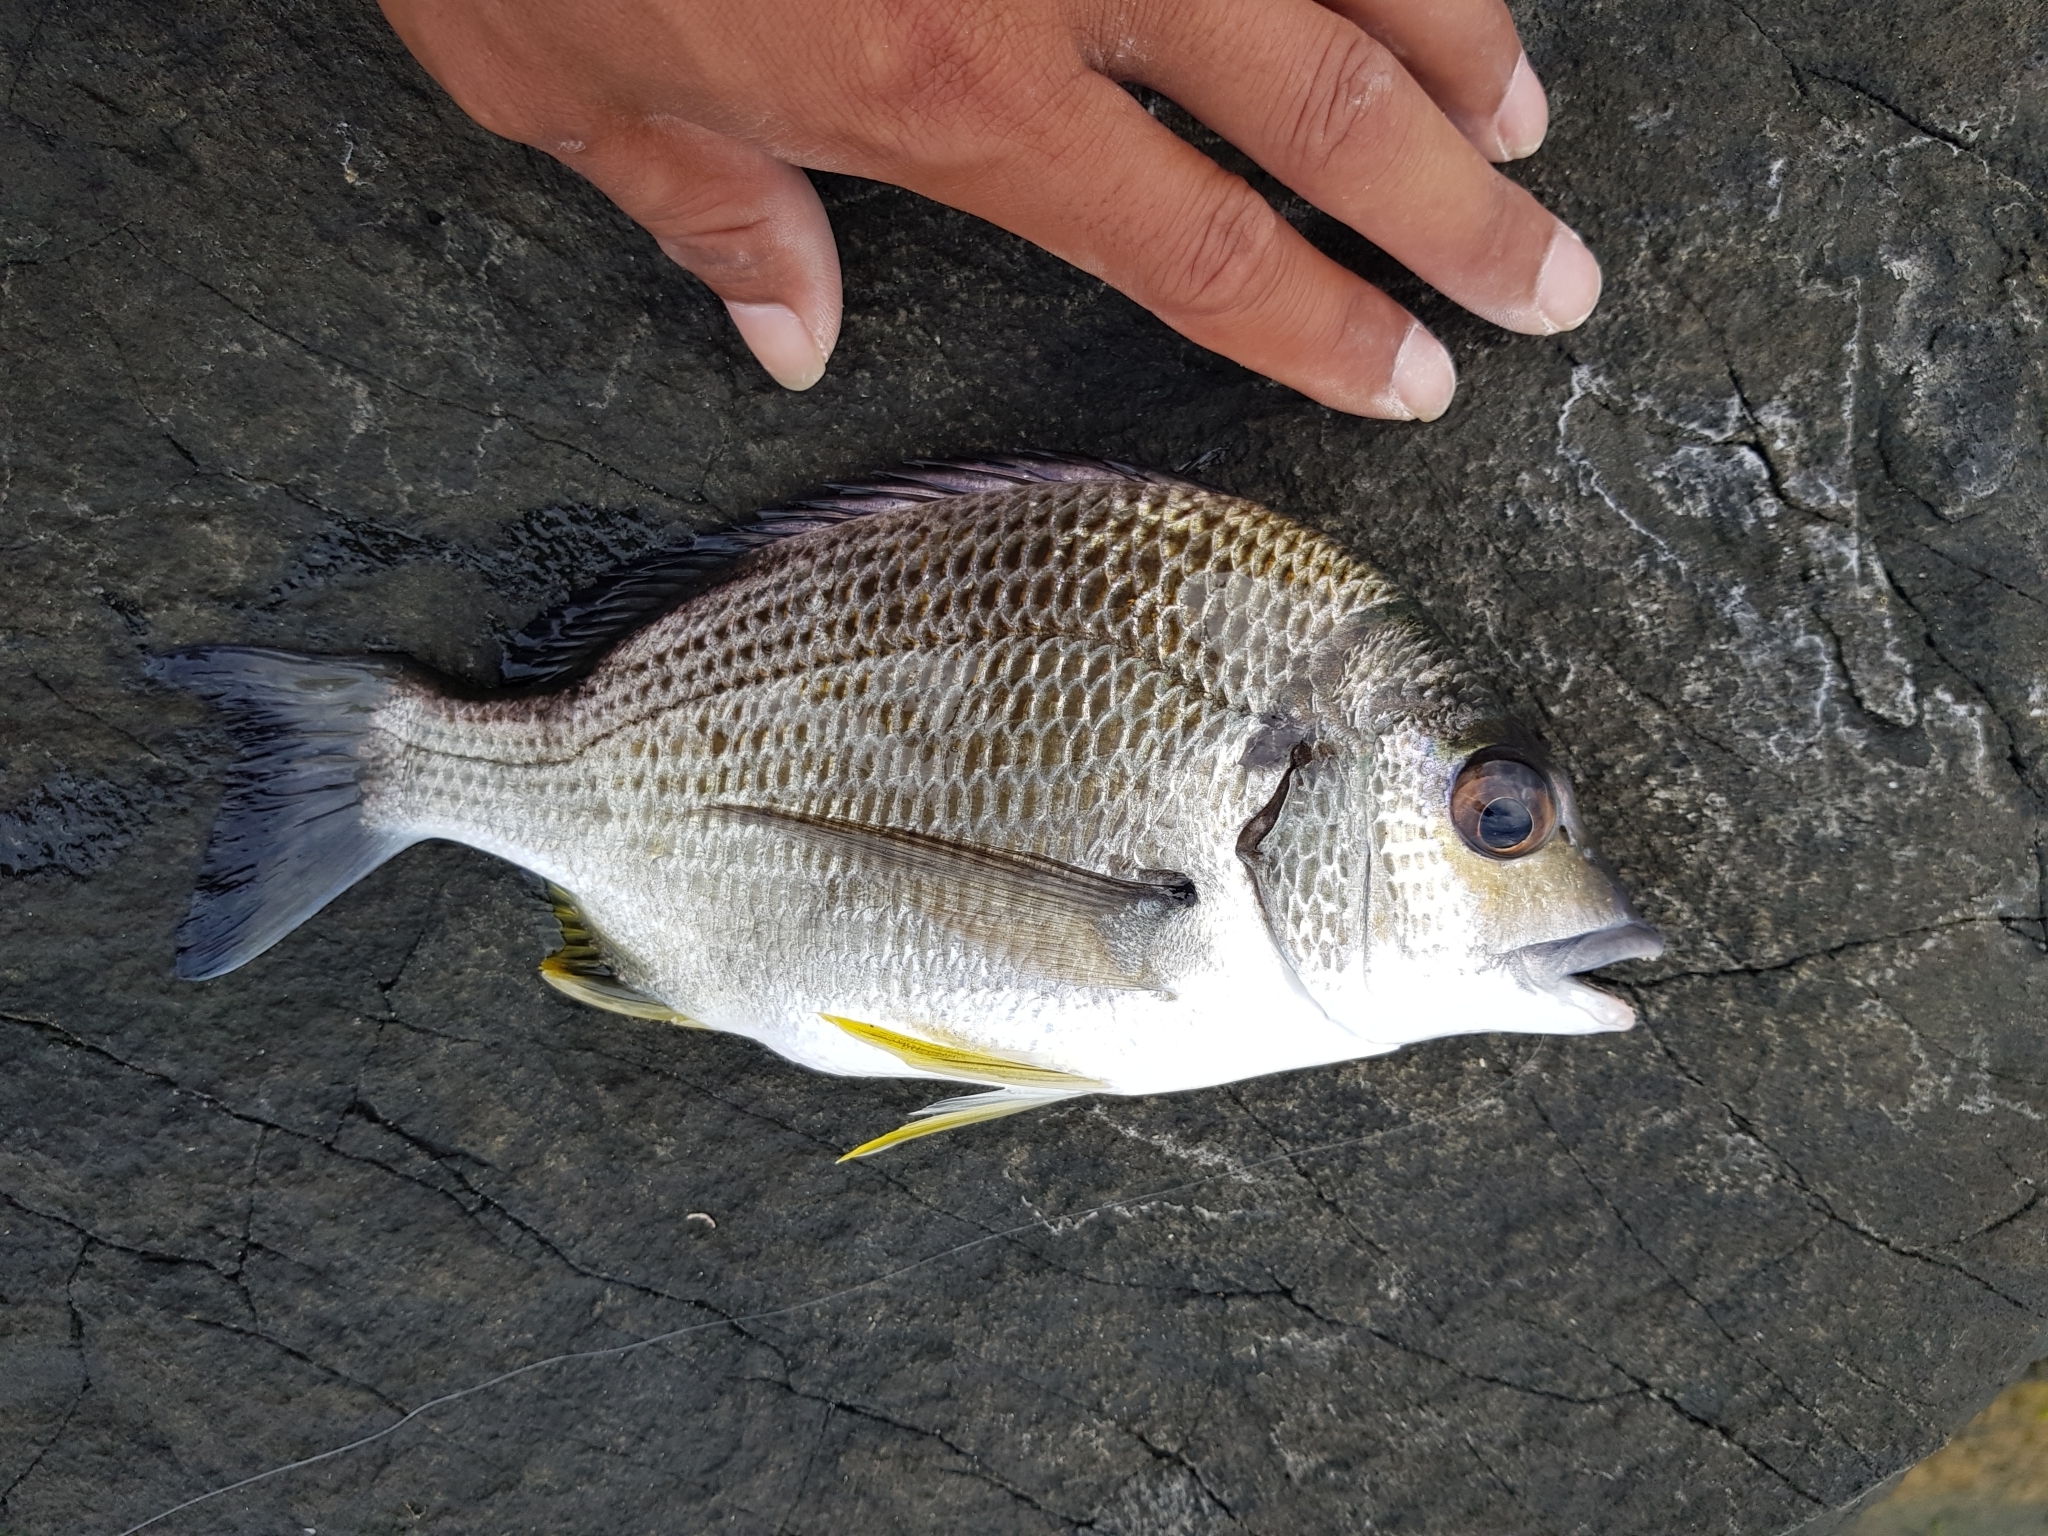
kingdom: Animalia
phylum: Chordata
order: Perciformes
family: Sparidae
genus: Acanthopagrus
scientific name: Acanthopagrus australis
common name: Surf bream
